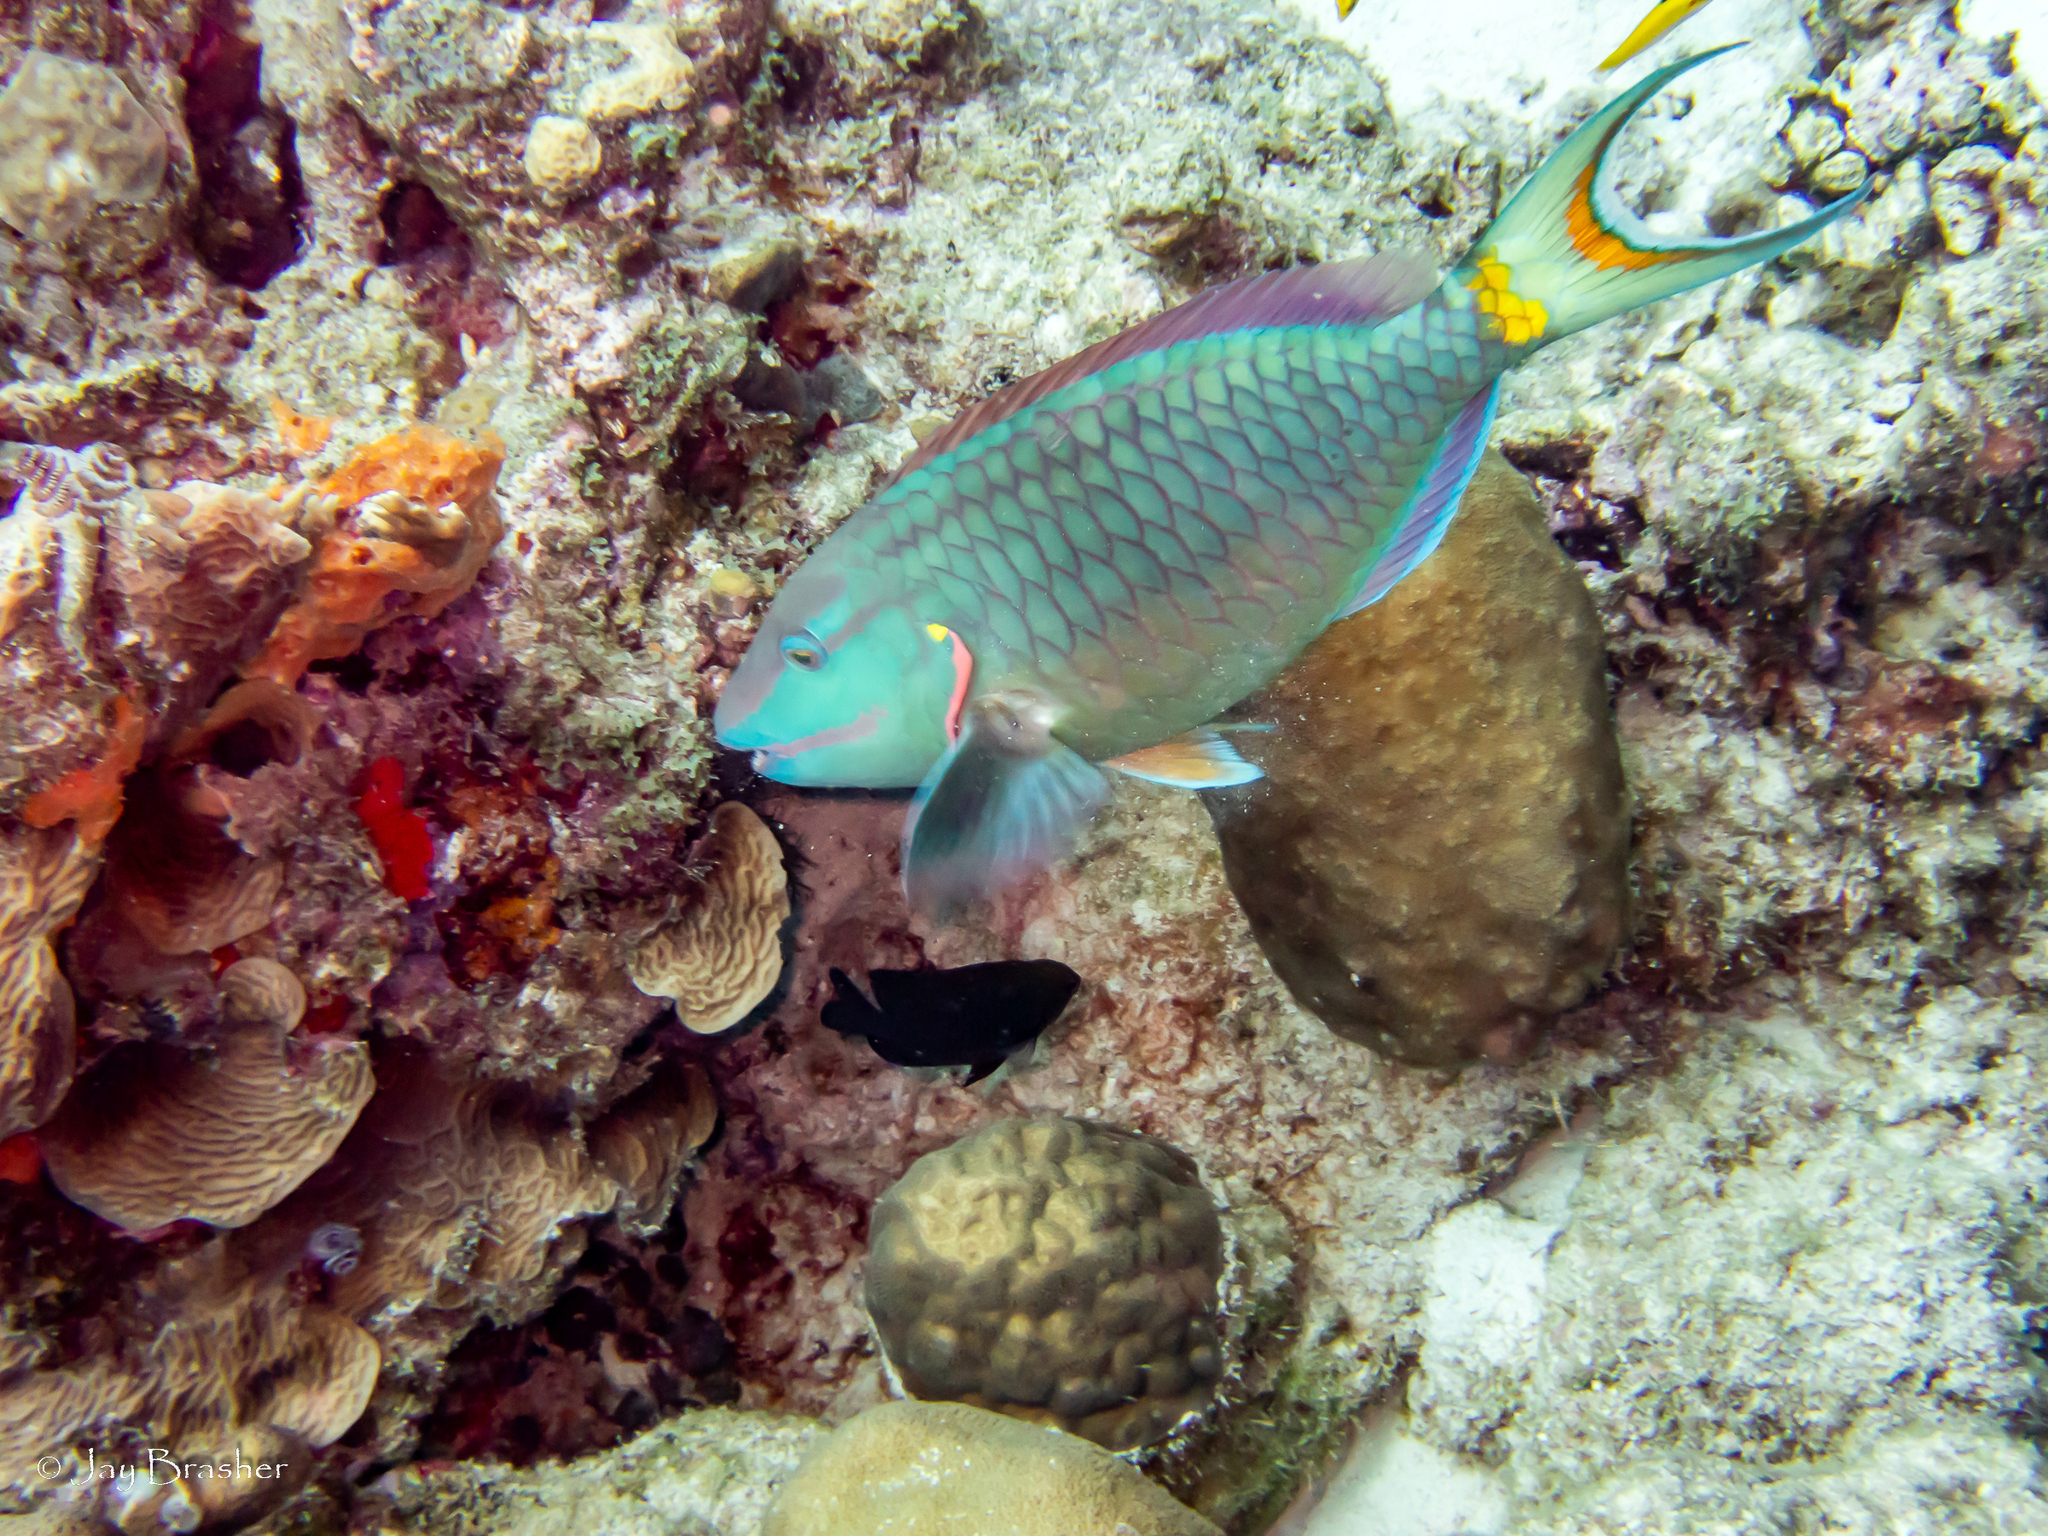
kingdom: Animalia
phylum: Porifera
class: Demospongiae
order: Scopalinida
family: Scopalinidae
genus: Scopalina
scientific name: Scopalina ruetzleri
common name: Orange lumpy encrusting sponge
